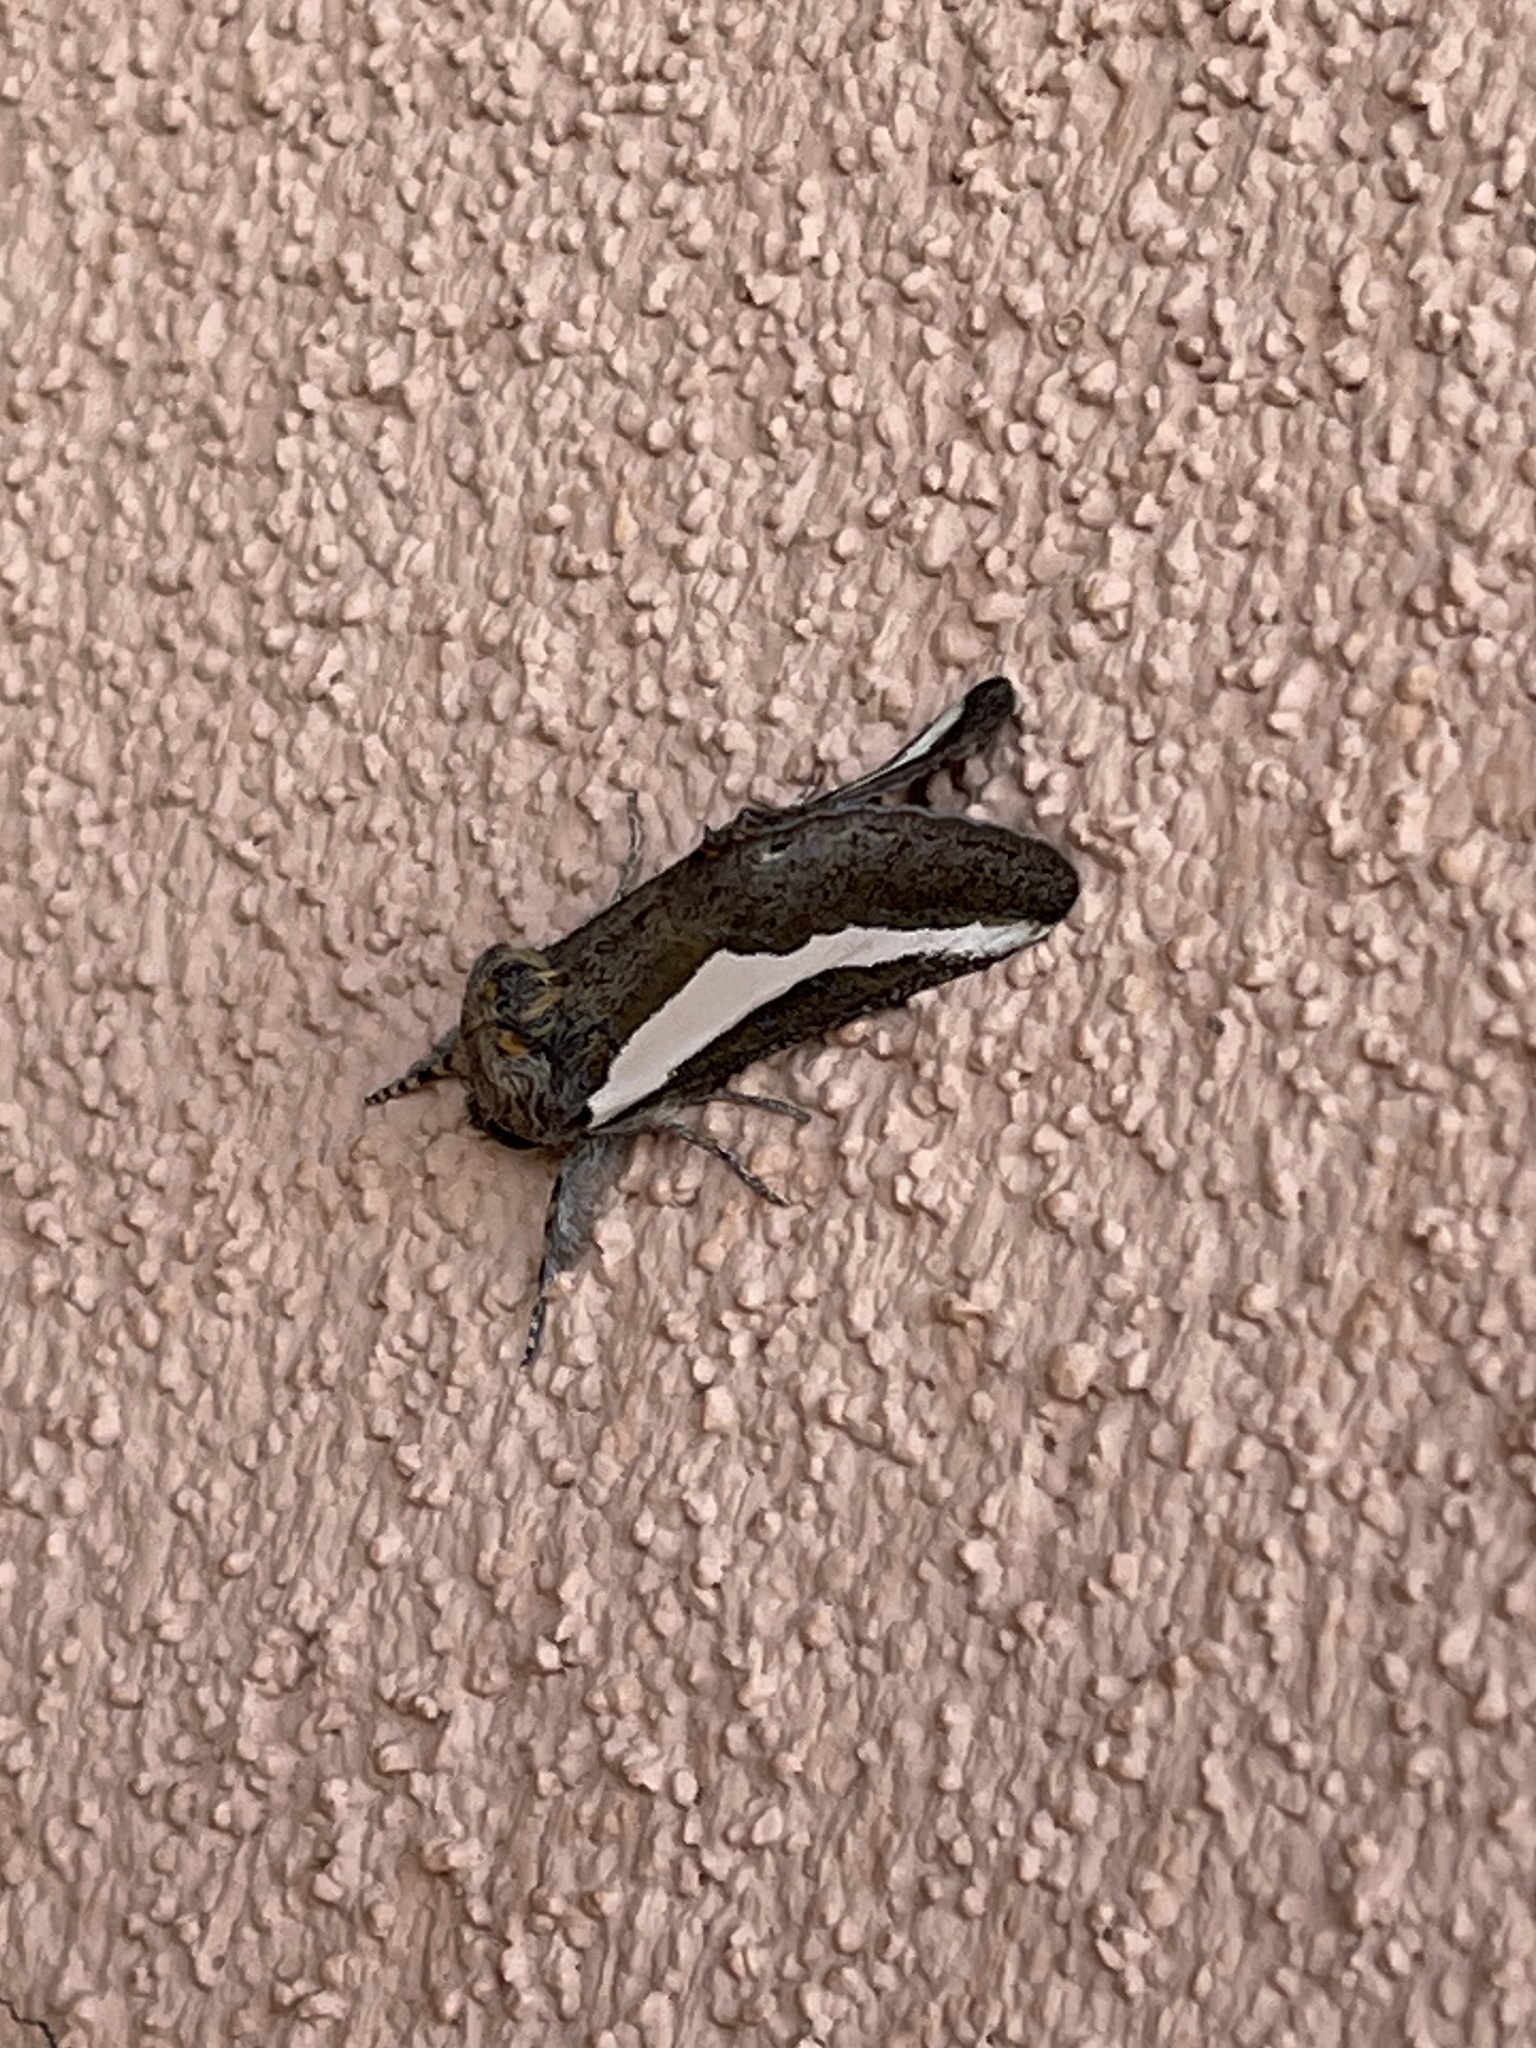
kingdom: Animalia
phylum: Arthropoda
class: Insecta
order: Lepidoptera
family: Noctuidae
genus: Euscirrhopterus
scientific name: Euscirrhopterus cosyra
